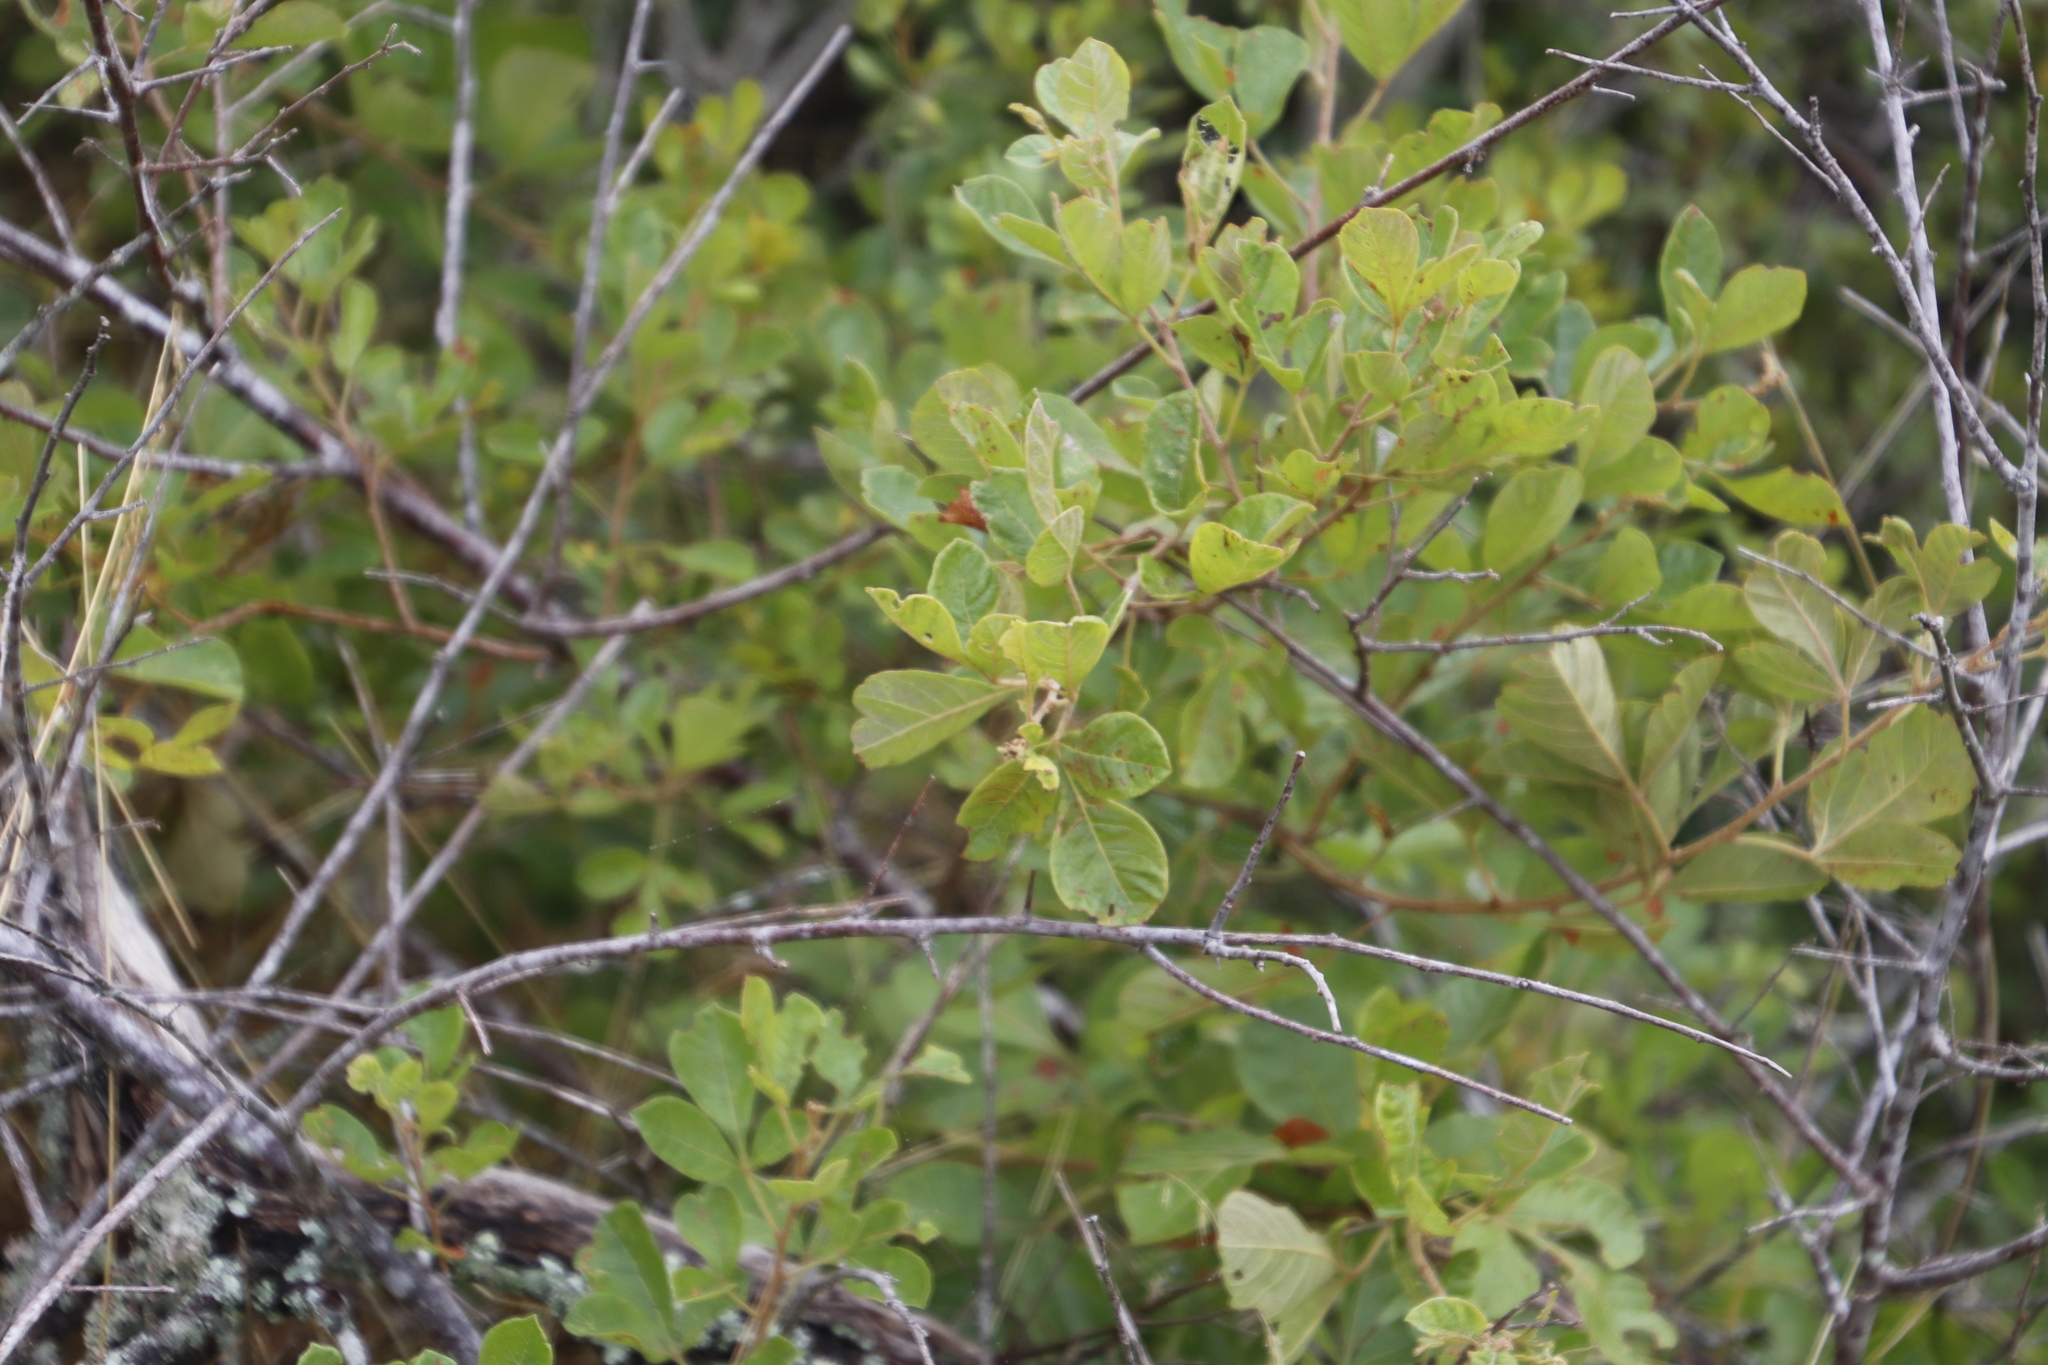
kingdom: Plantae
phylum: Tracheophyta
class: Magnoliopsida
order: Sapindales
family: Anacardiaceae
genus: Searsia
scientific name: Searsia rehmanniana
